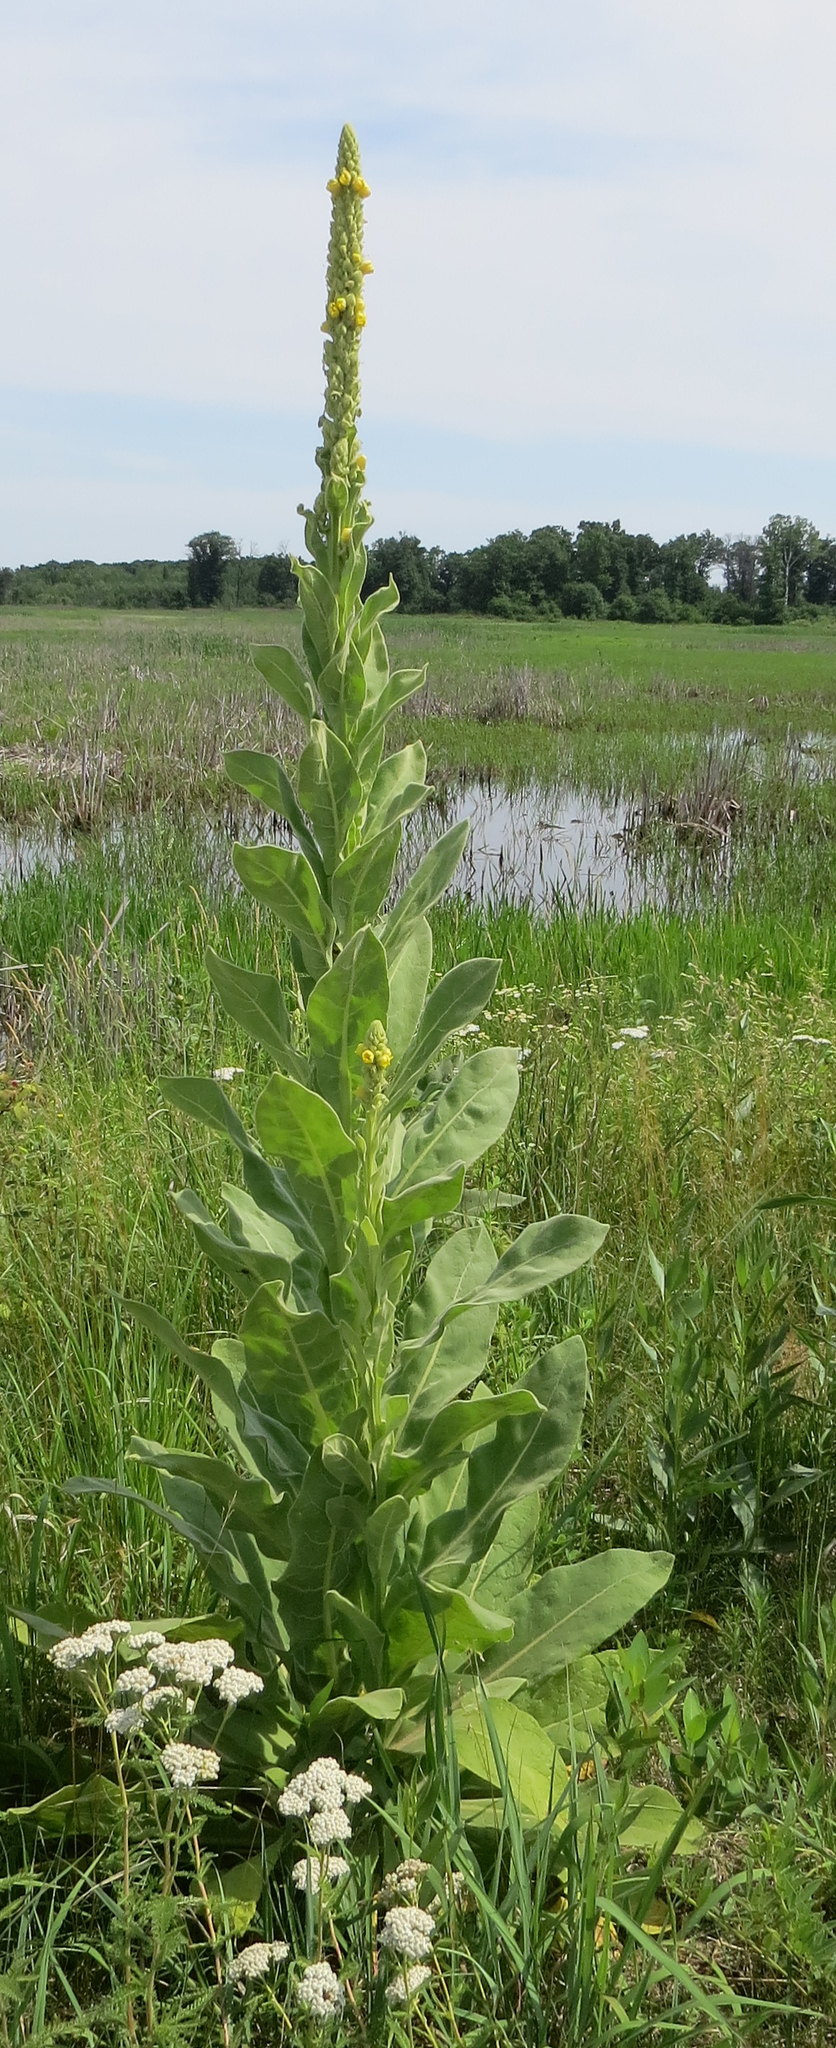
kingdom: Plantae
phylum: Tracheophyta
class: Magnoliopsida
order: Lamiales
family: Scrophulariaceae
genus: Verbascum
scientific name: Verbascum thapsus
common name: Common mullein
